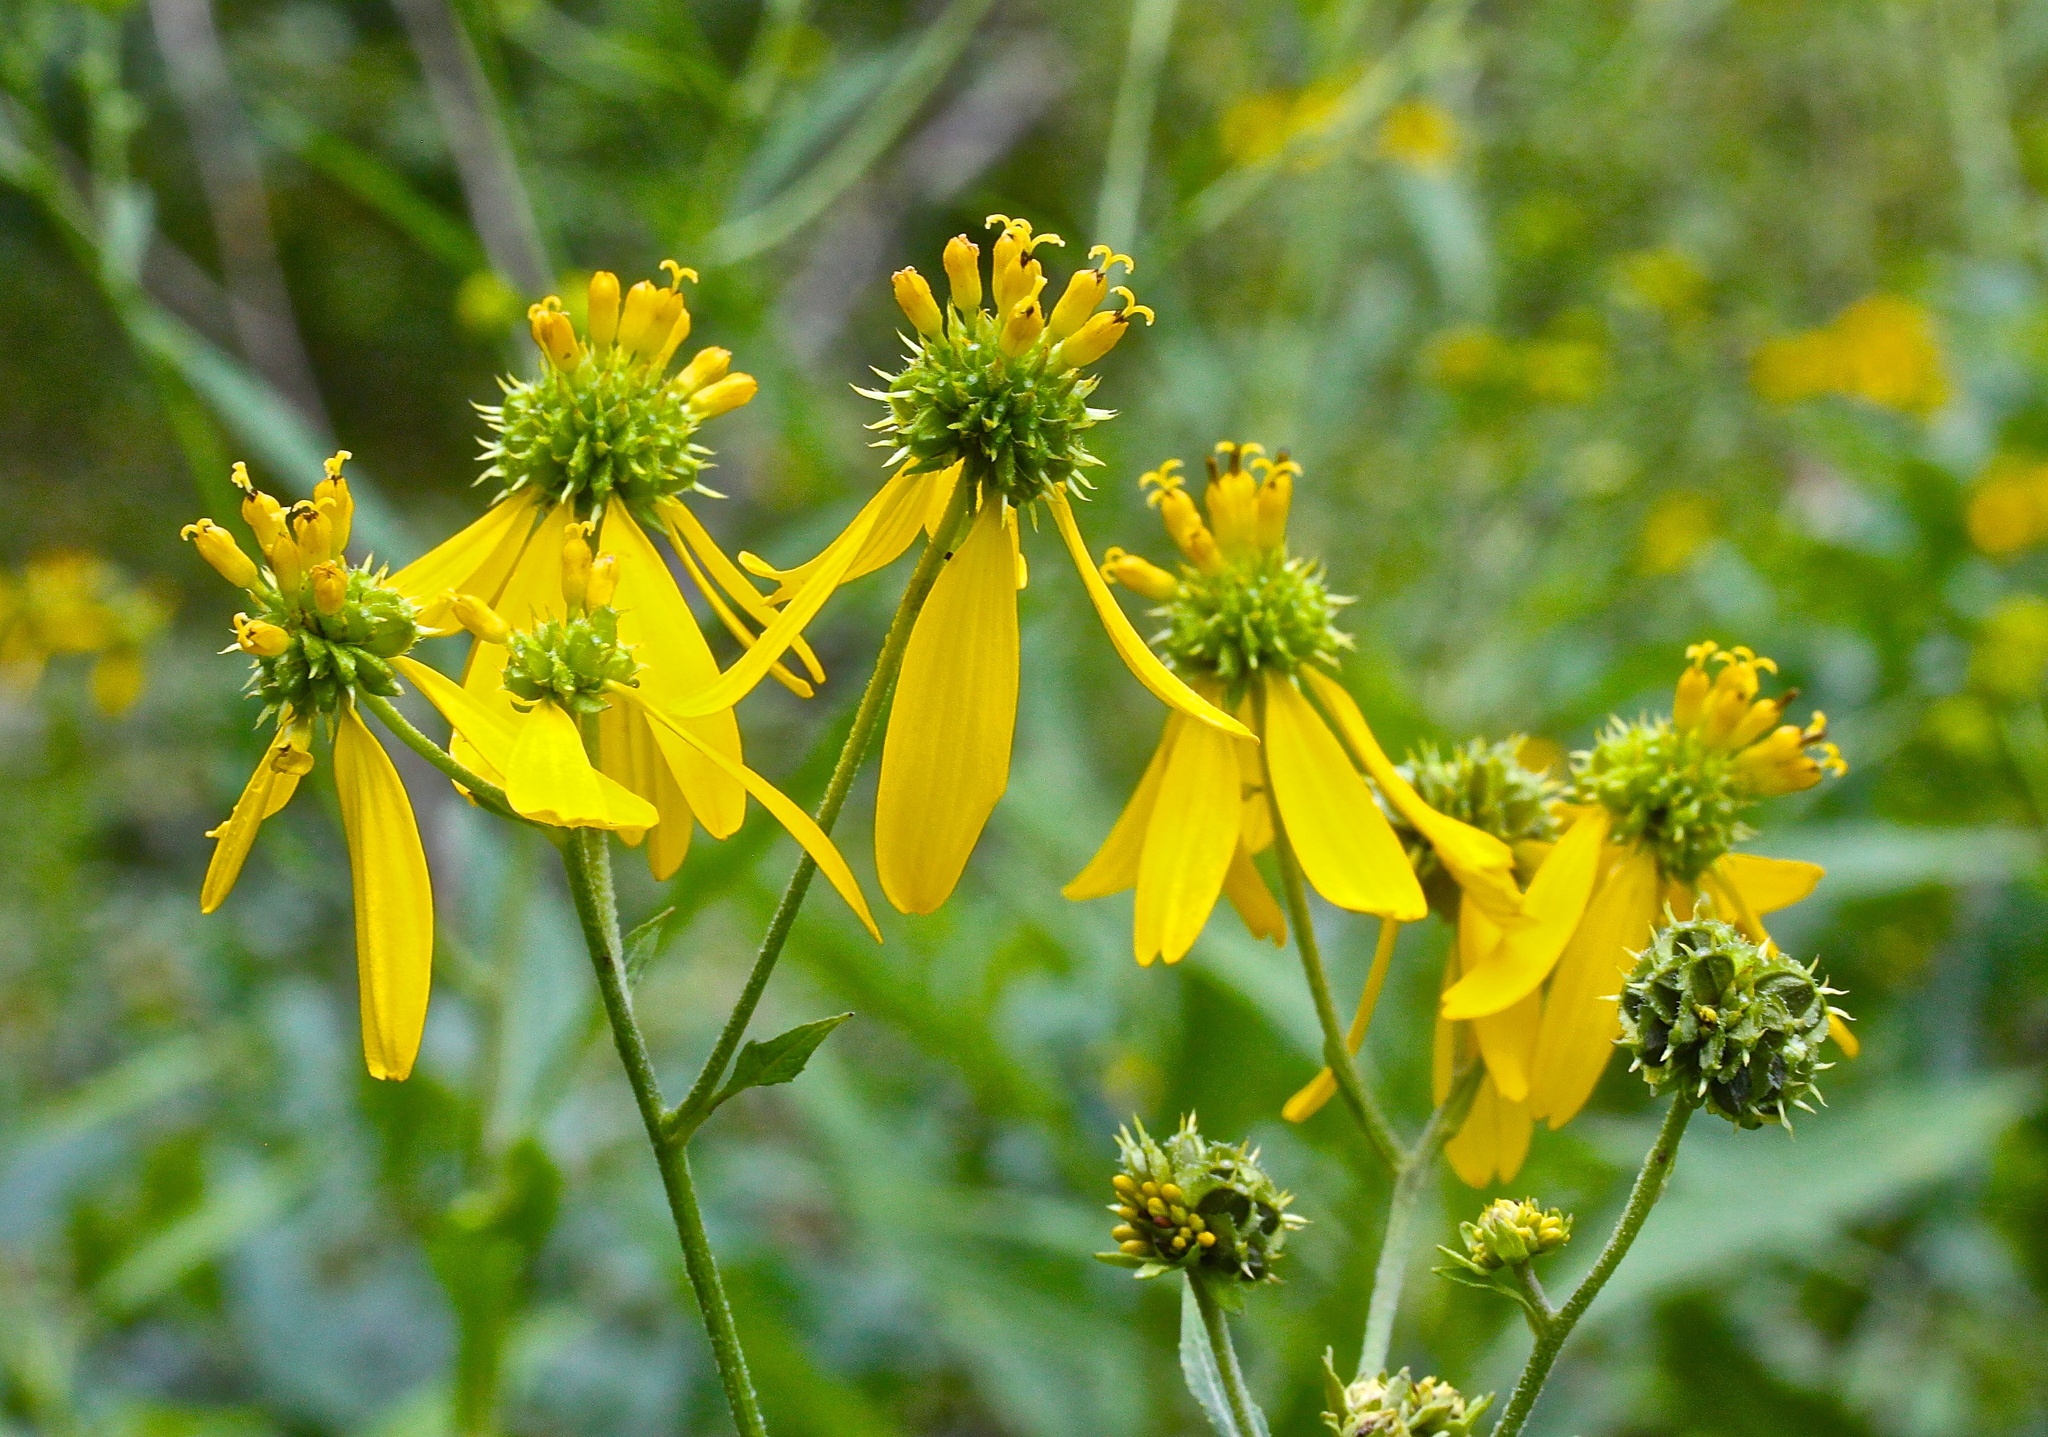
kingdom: Plantae
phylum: Tracheophyta
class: Magnoliopsida
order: Asterales
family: Asteraceae
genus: Verbesina
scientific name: Verbesina alternifolia
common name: Wingstem
